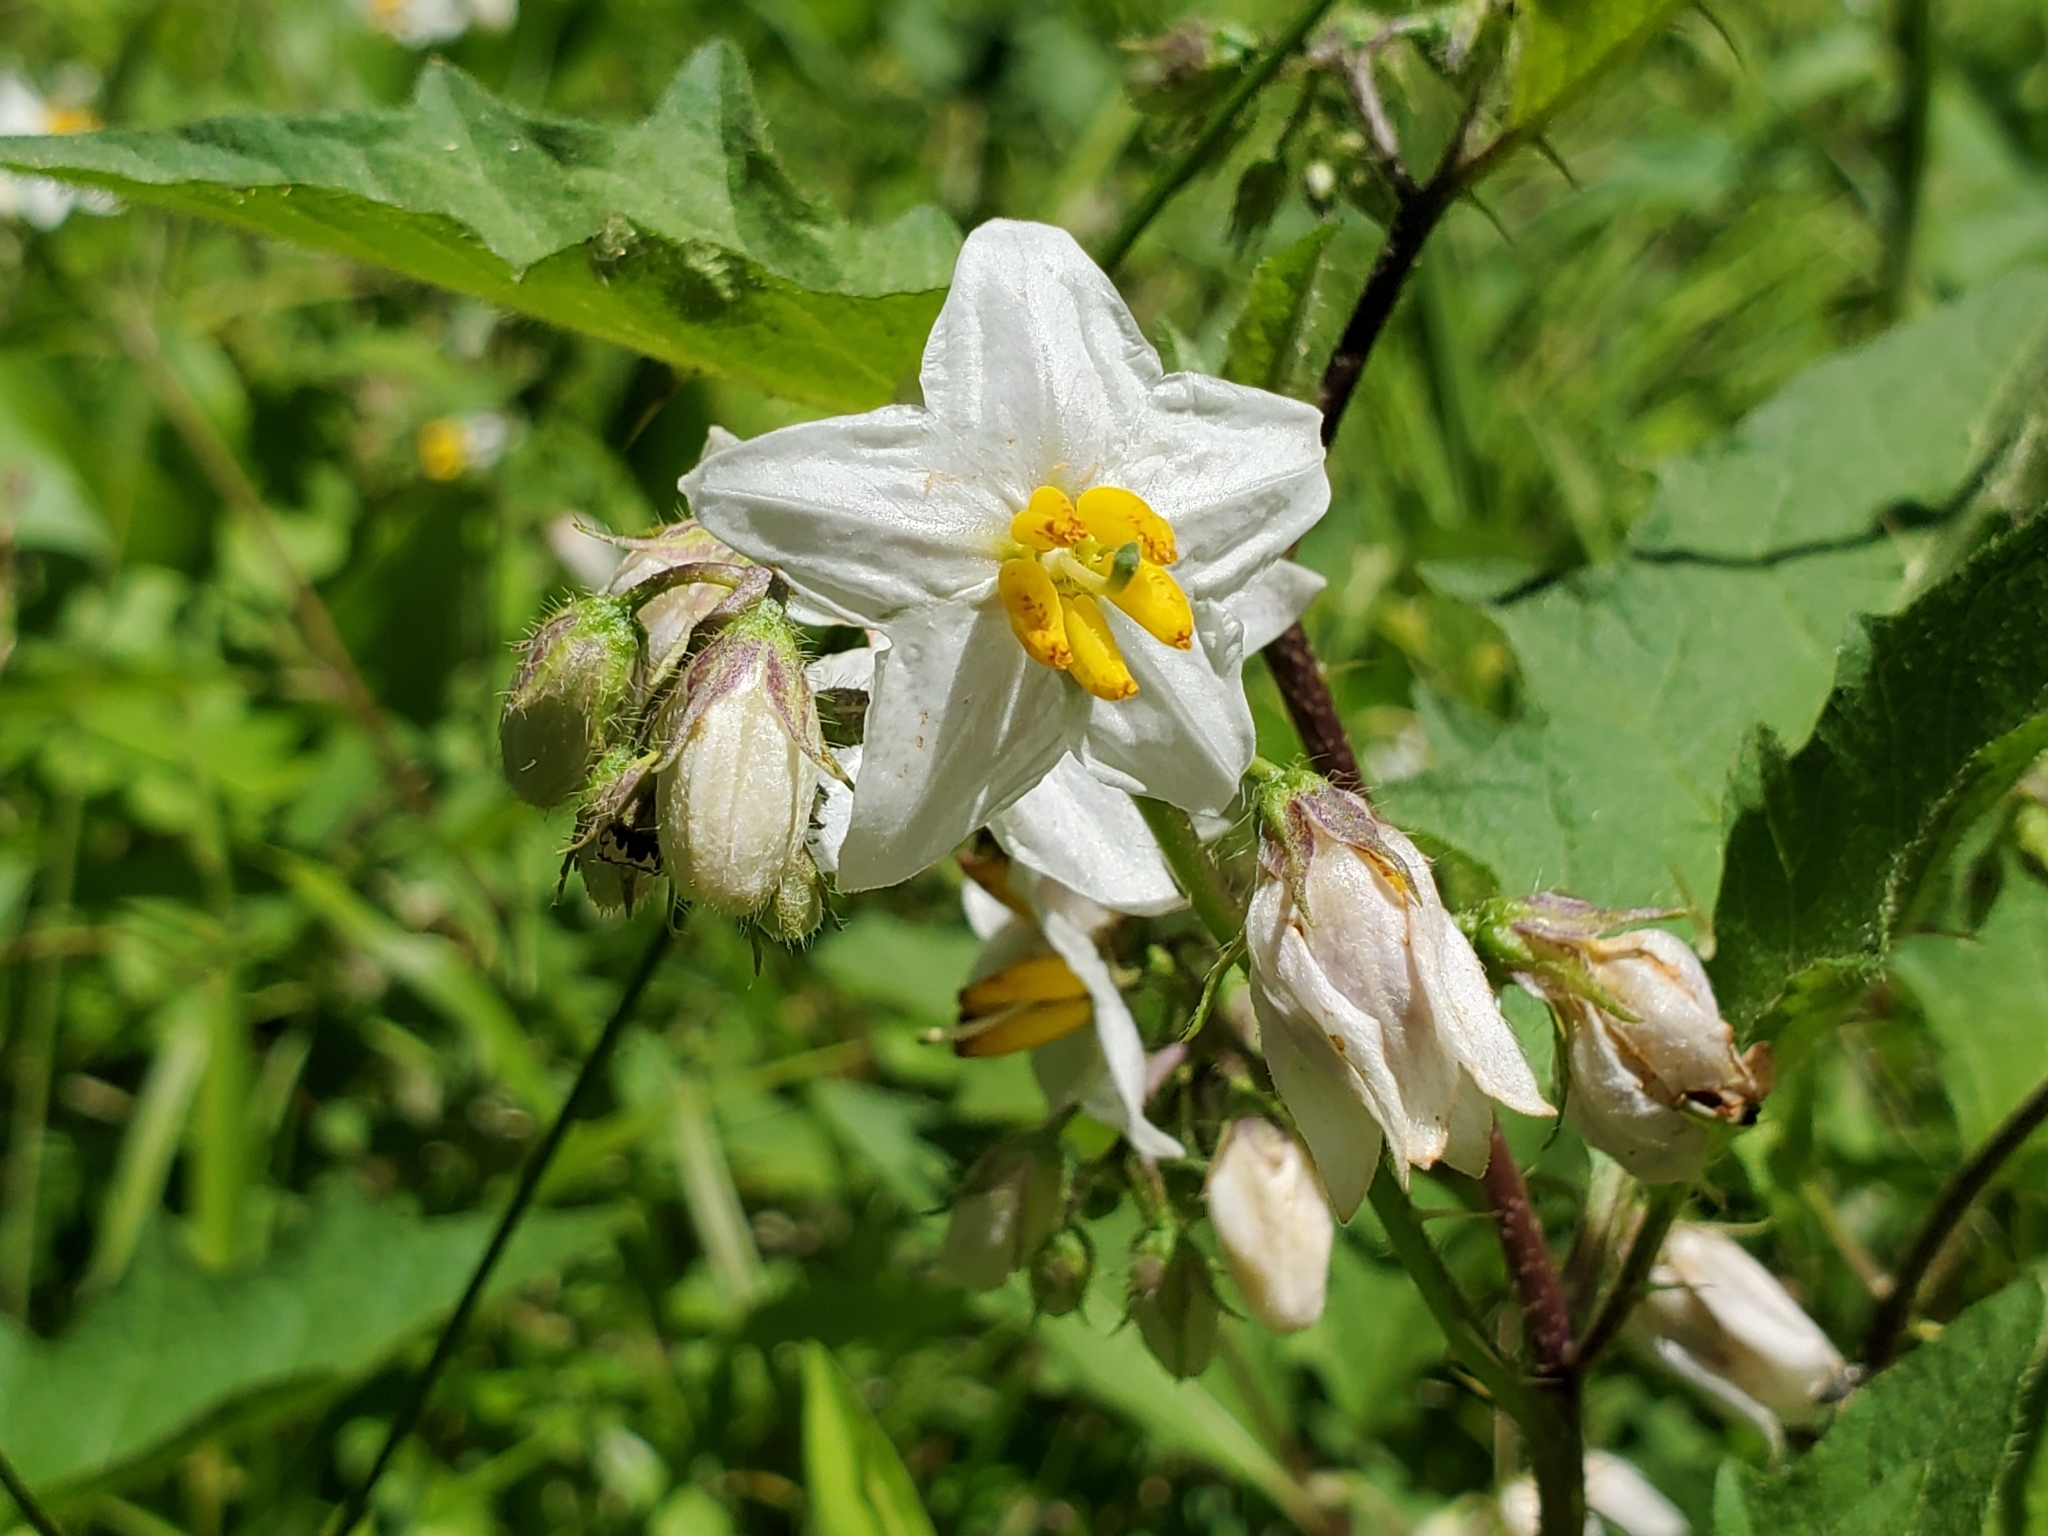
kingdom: Plantae
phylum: Tracheophyta
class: Magnoliopsida
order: Solanales
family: Solanaceae
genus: Solanum
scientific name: Solanum carolinense
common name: Horse-nettle
